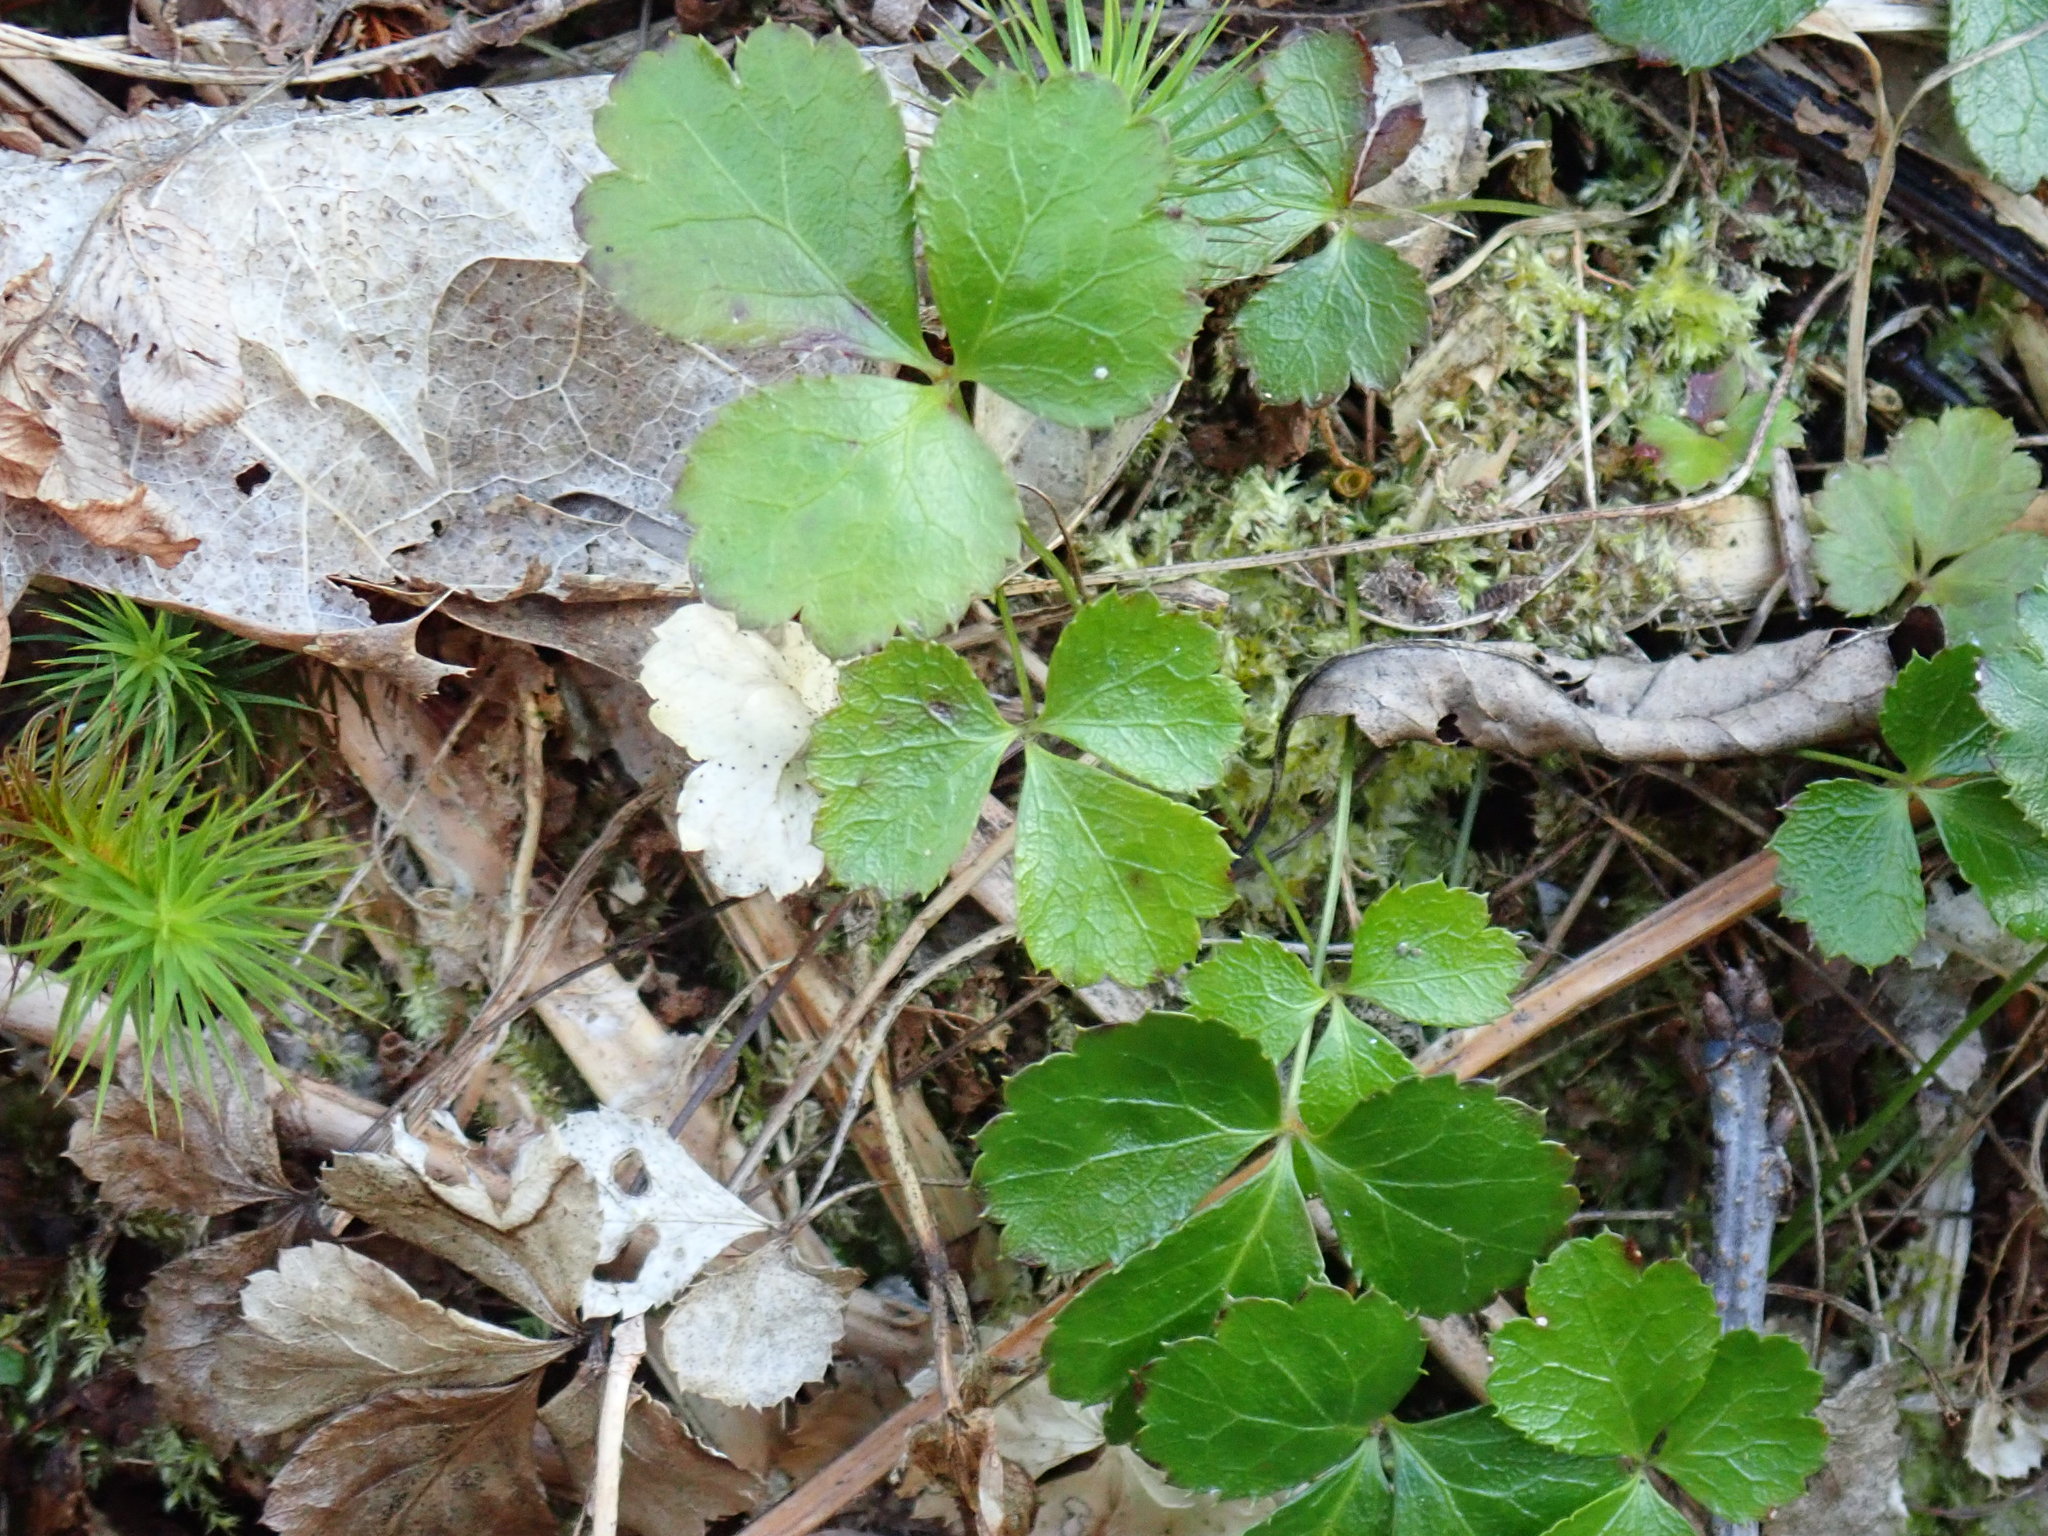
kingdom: Plantae
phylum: Tracheophyta
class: Magnoliopsida
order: Ranunculales
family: Ranunculaceae
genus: Coptis
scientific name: Coptis trifolia
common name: Canker-root
